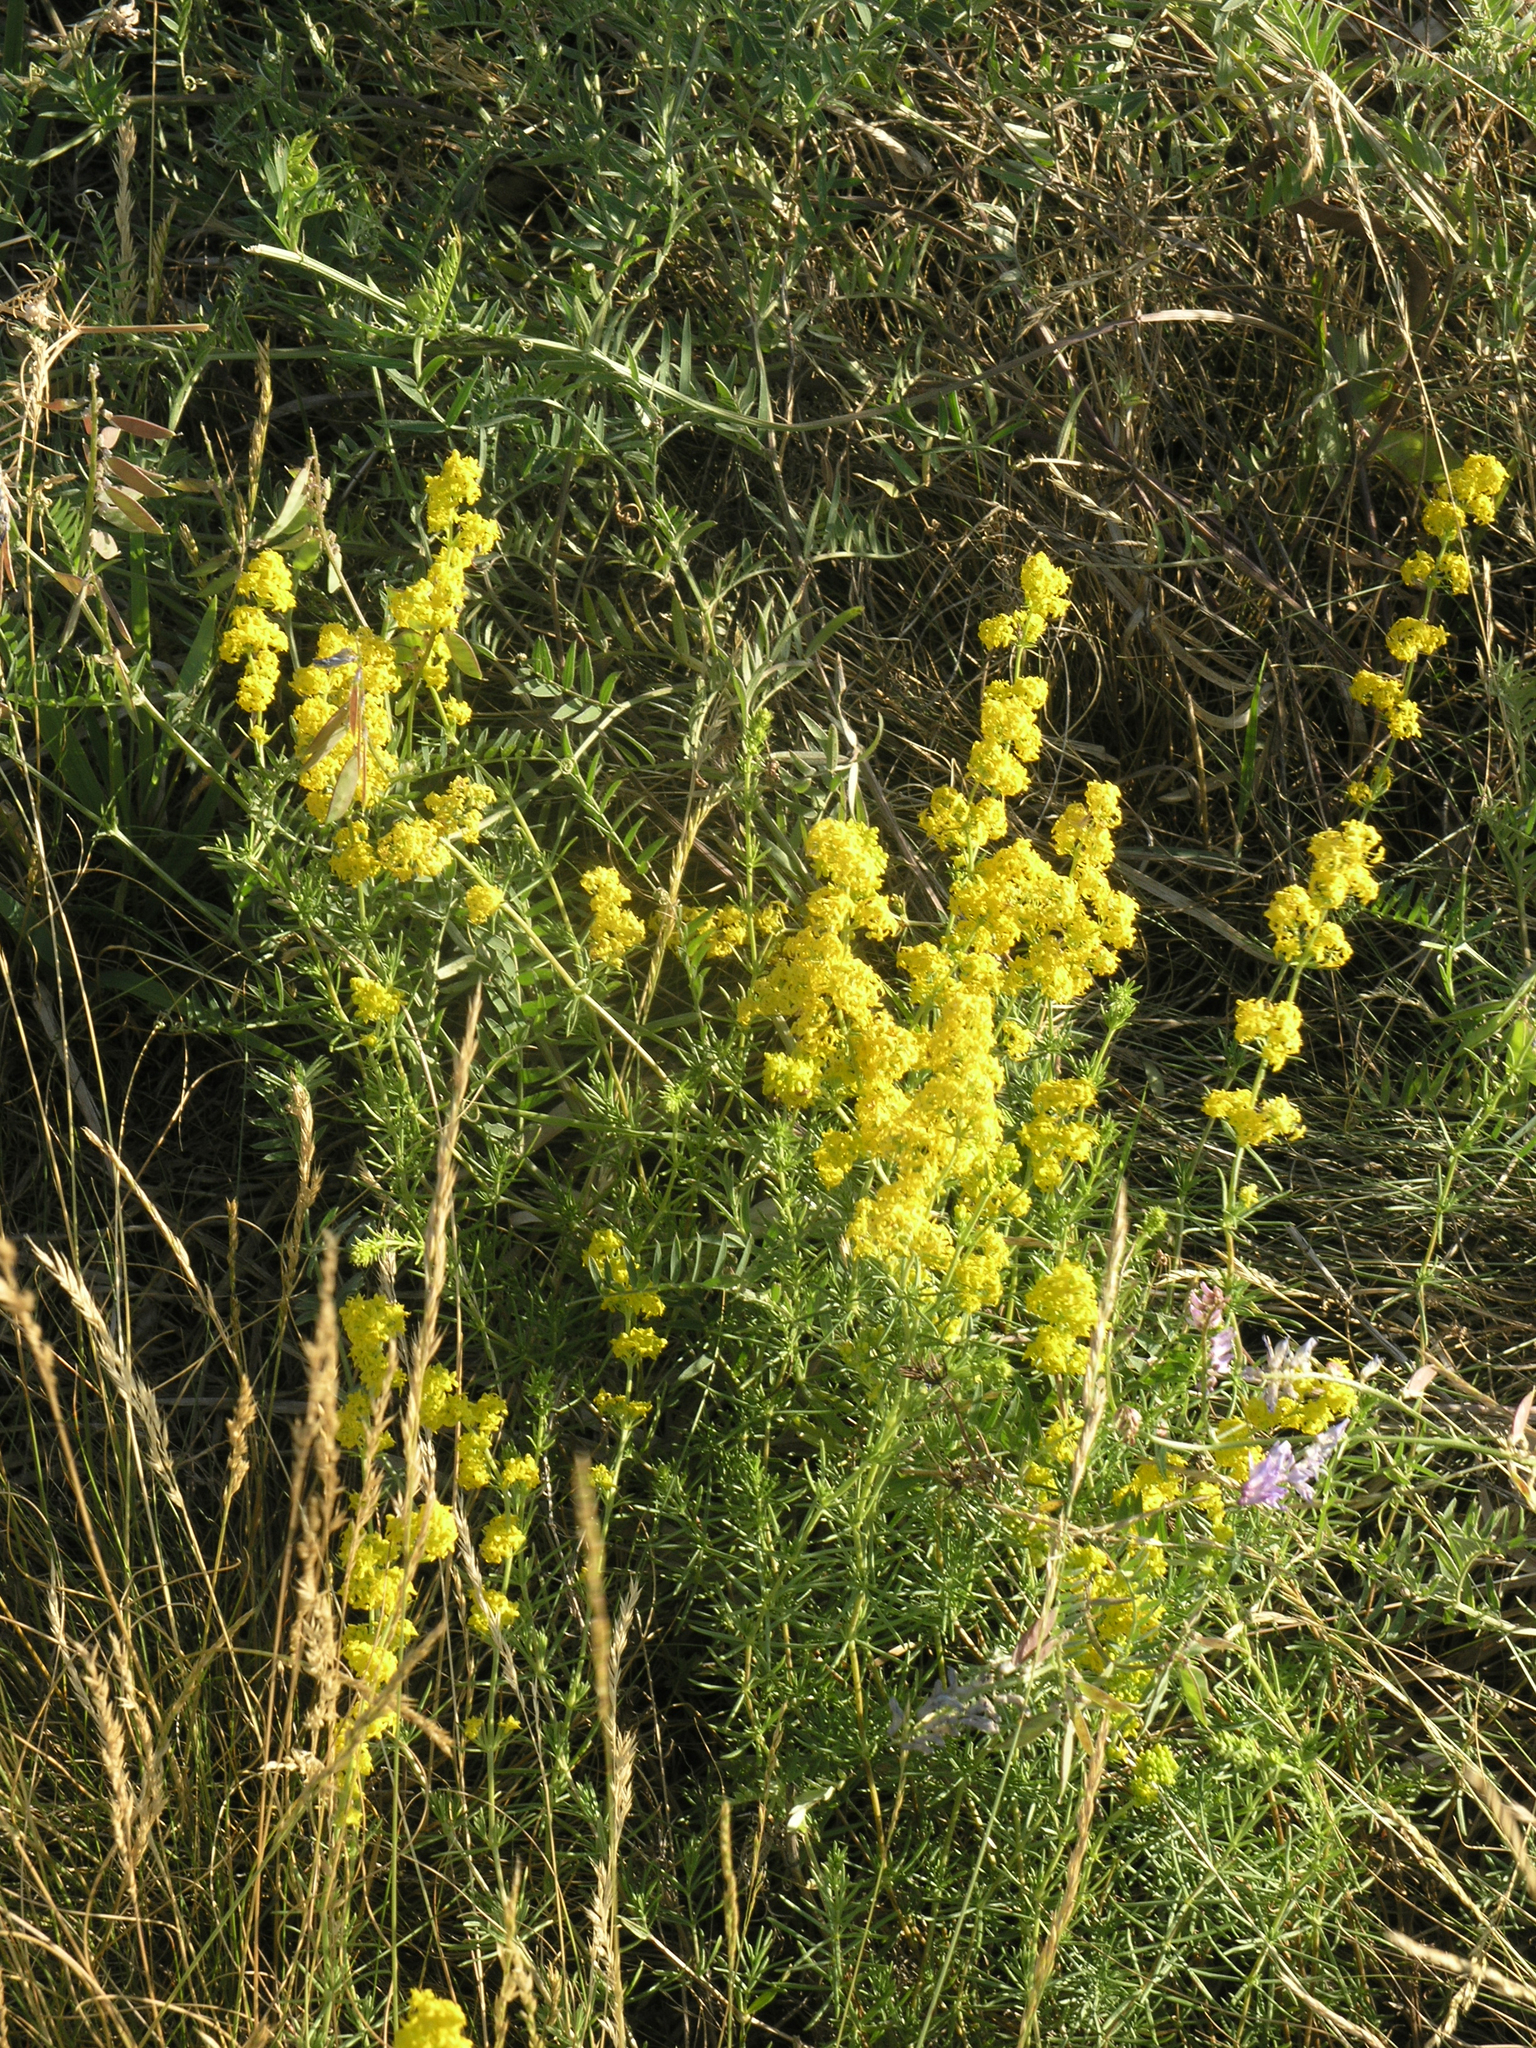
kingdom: Plantae
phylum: Tracheophyta
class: Magnoliopsida
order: Gentianales
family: Rubiaceae
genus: Galium
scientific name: Galium verum
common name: Lady's bedstraw
